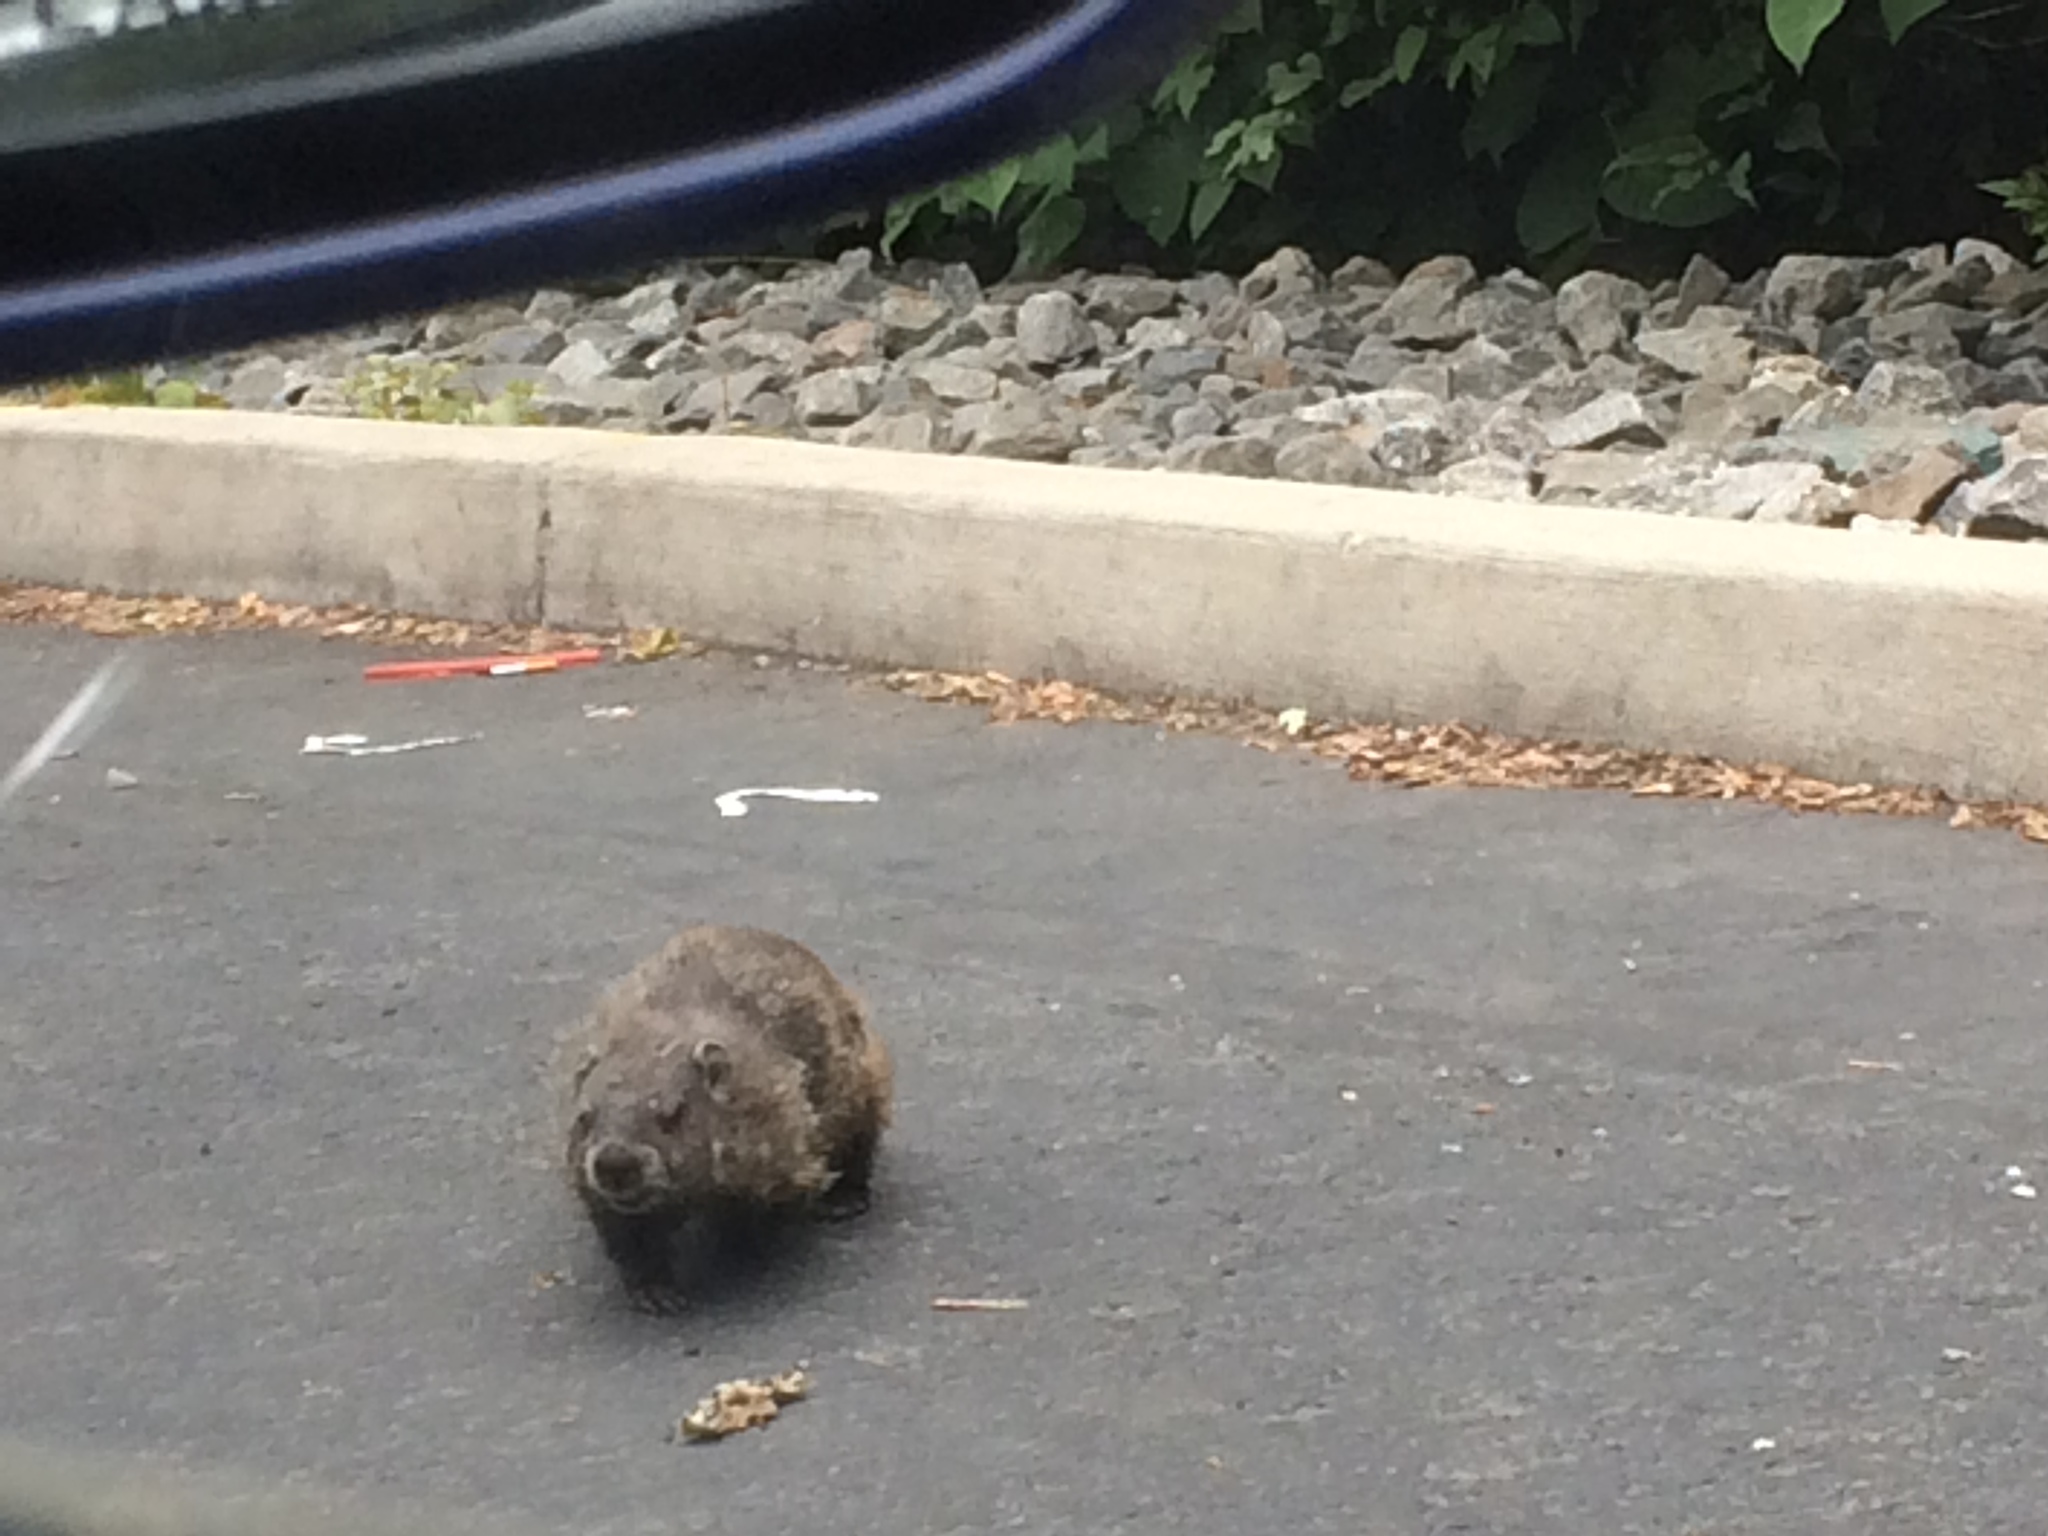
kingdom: Animalia
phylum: Chordata
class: Mammalia
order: Rodentia
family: Sciuridae
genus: Marmota
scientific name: Marmota monax
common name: Groundhog
